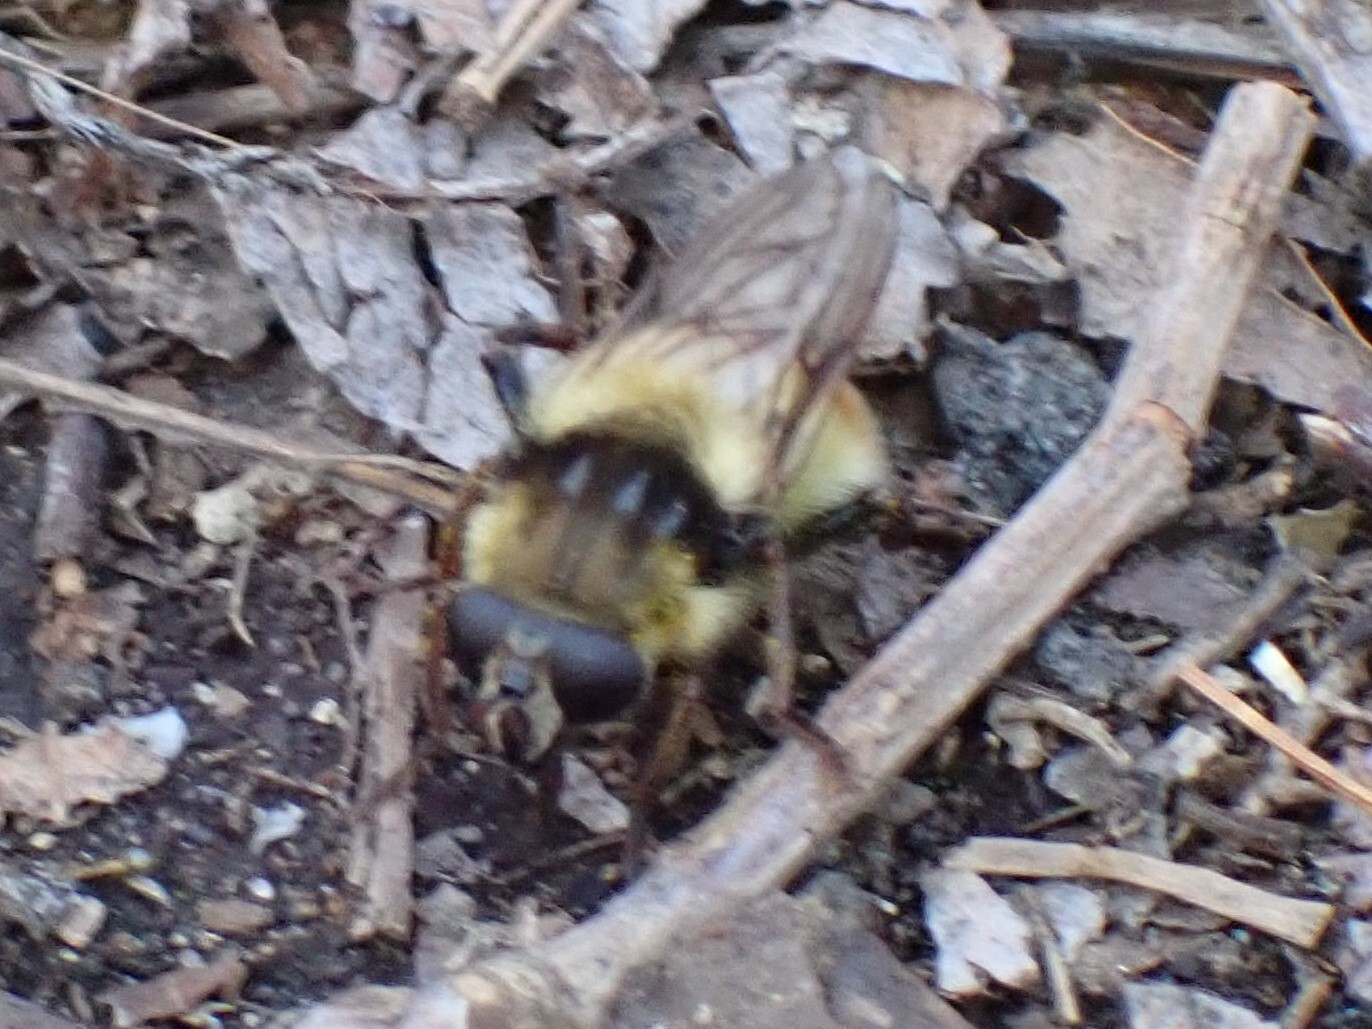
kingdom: Animalia
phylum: Arthropoda
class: Insecta
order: Diptera
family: Syrphidae
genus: Criorhina
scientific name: Criorhina verbosa
